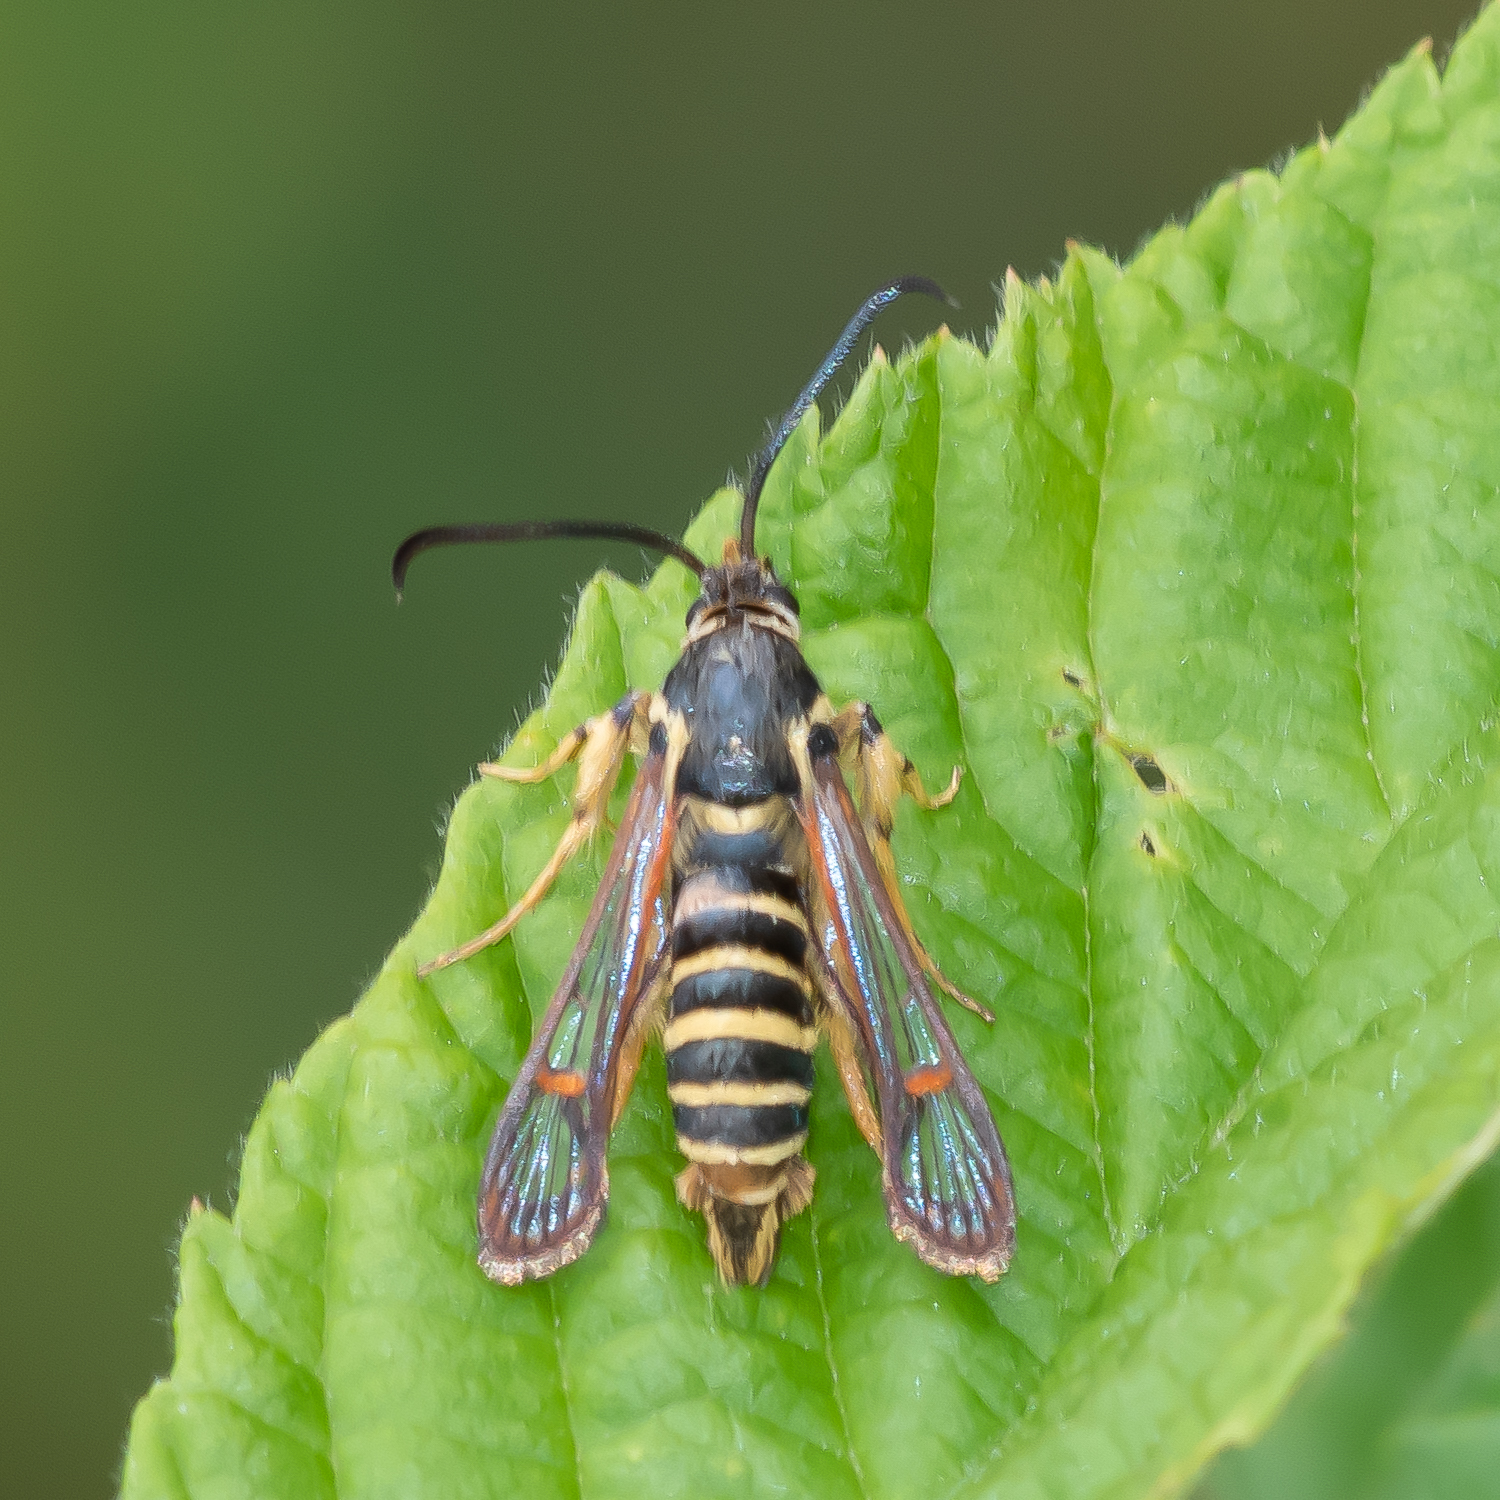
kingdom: Animalia
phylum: Arthropoda
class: Insecta
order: Lepidoptera
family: Sesiidae
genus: Synanthedon
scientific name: Synanthedon rileyana
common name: Riley's clearwing moth
